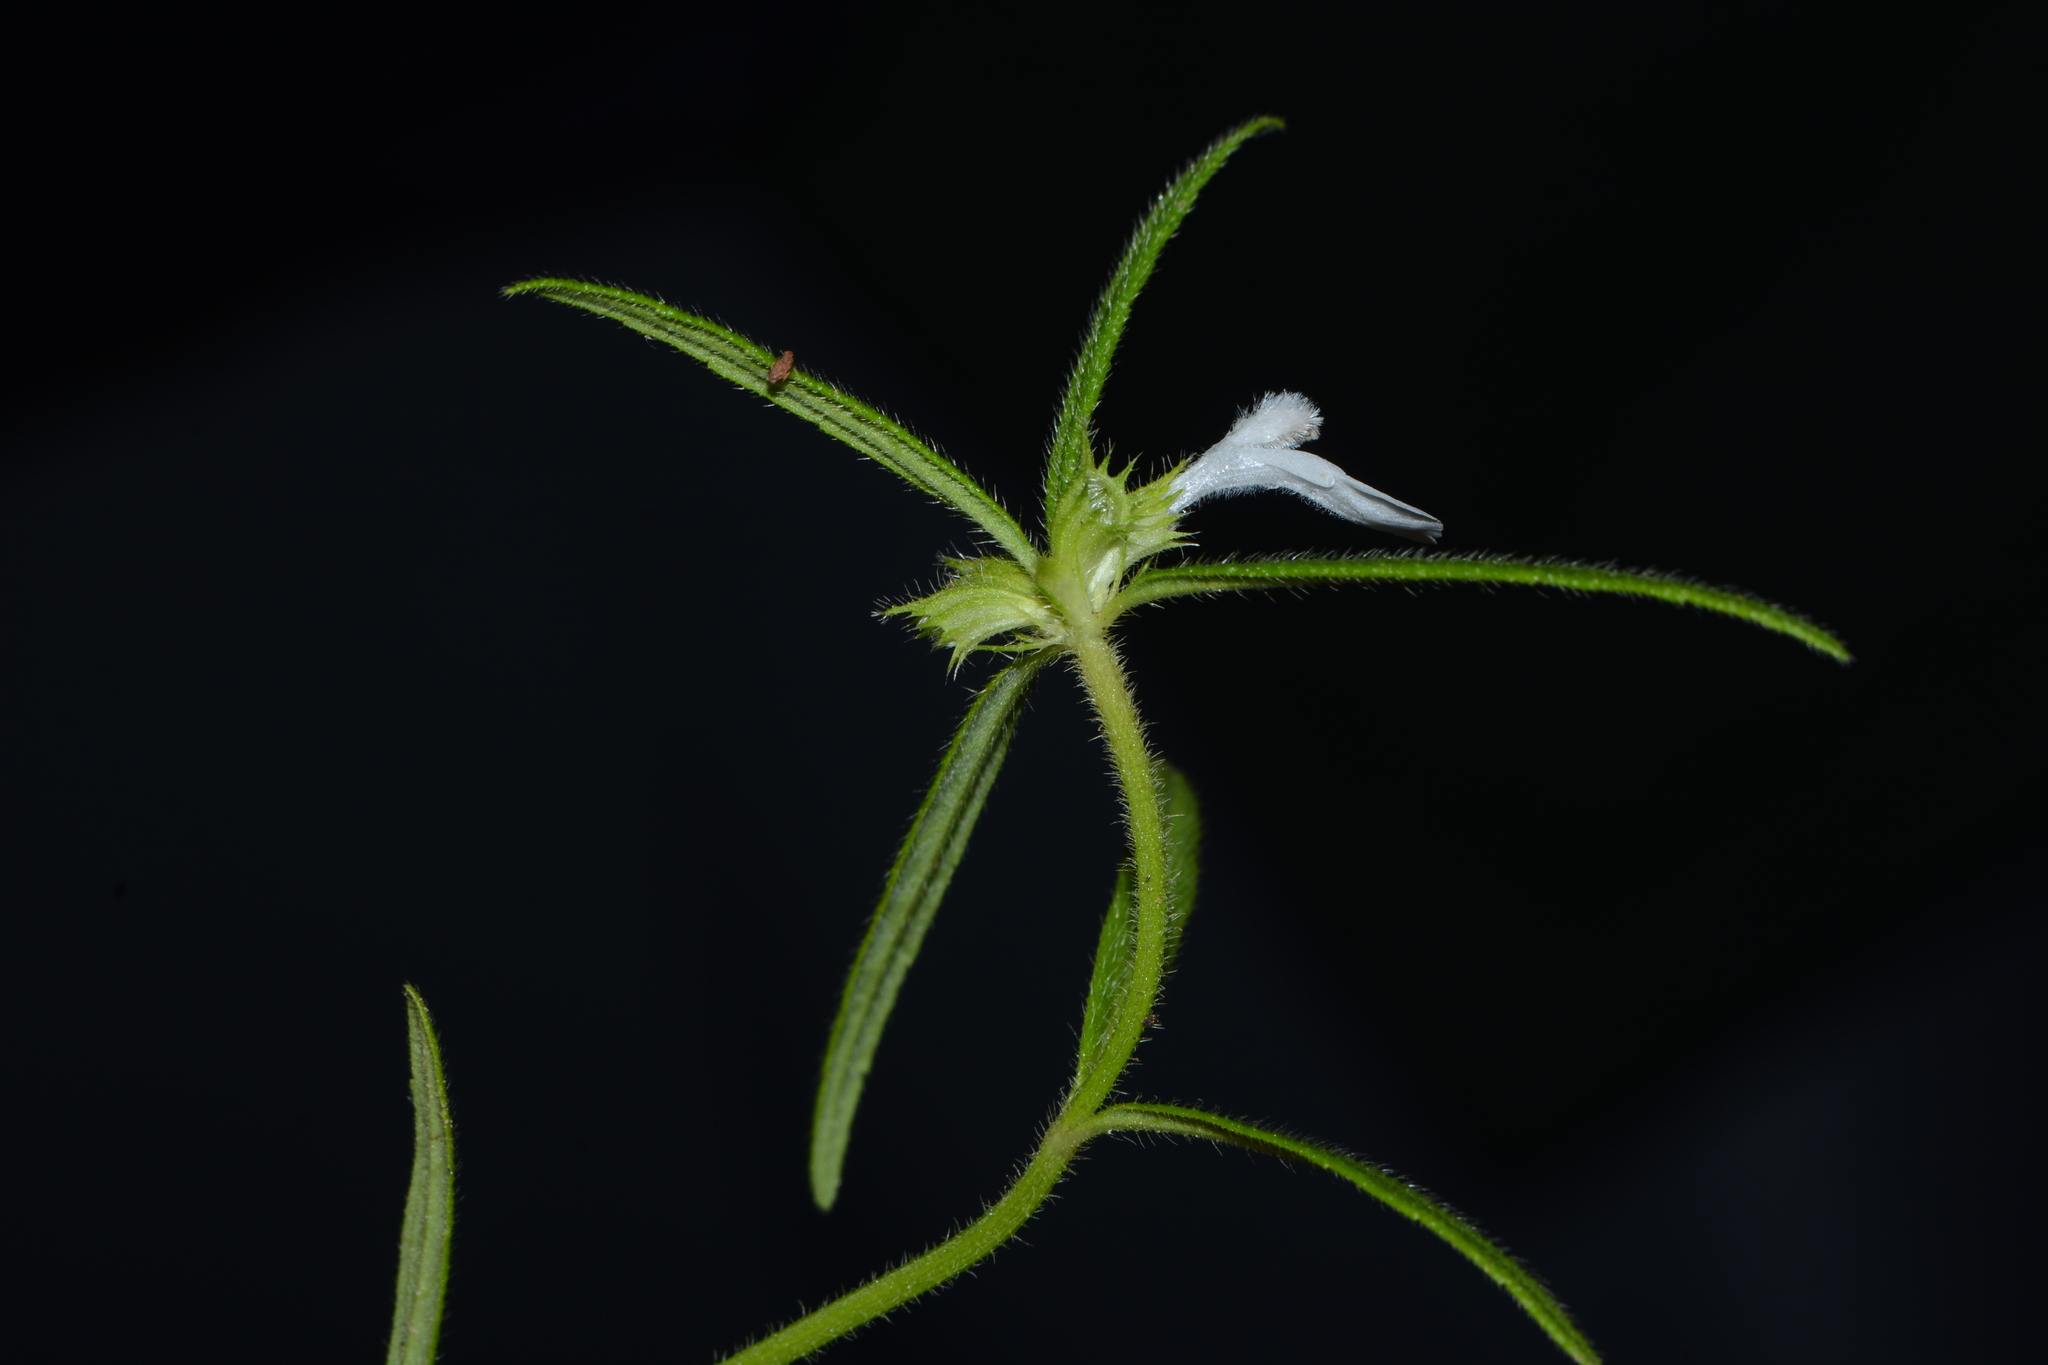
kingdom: Plantae
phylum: Tracheophyta
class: Magnoliopsida
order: Lamiales
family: Lamiaceae
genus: Leucas
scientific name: Leucas stricta
